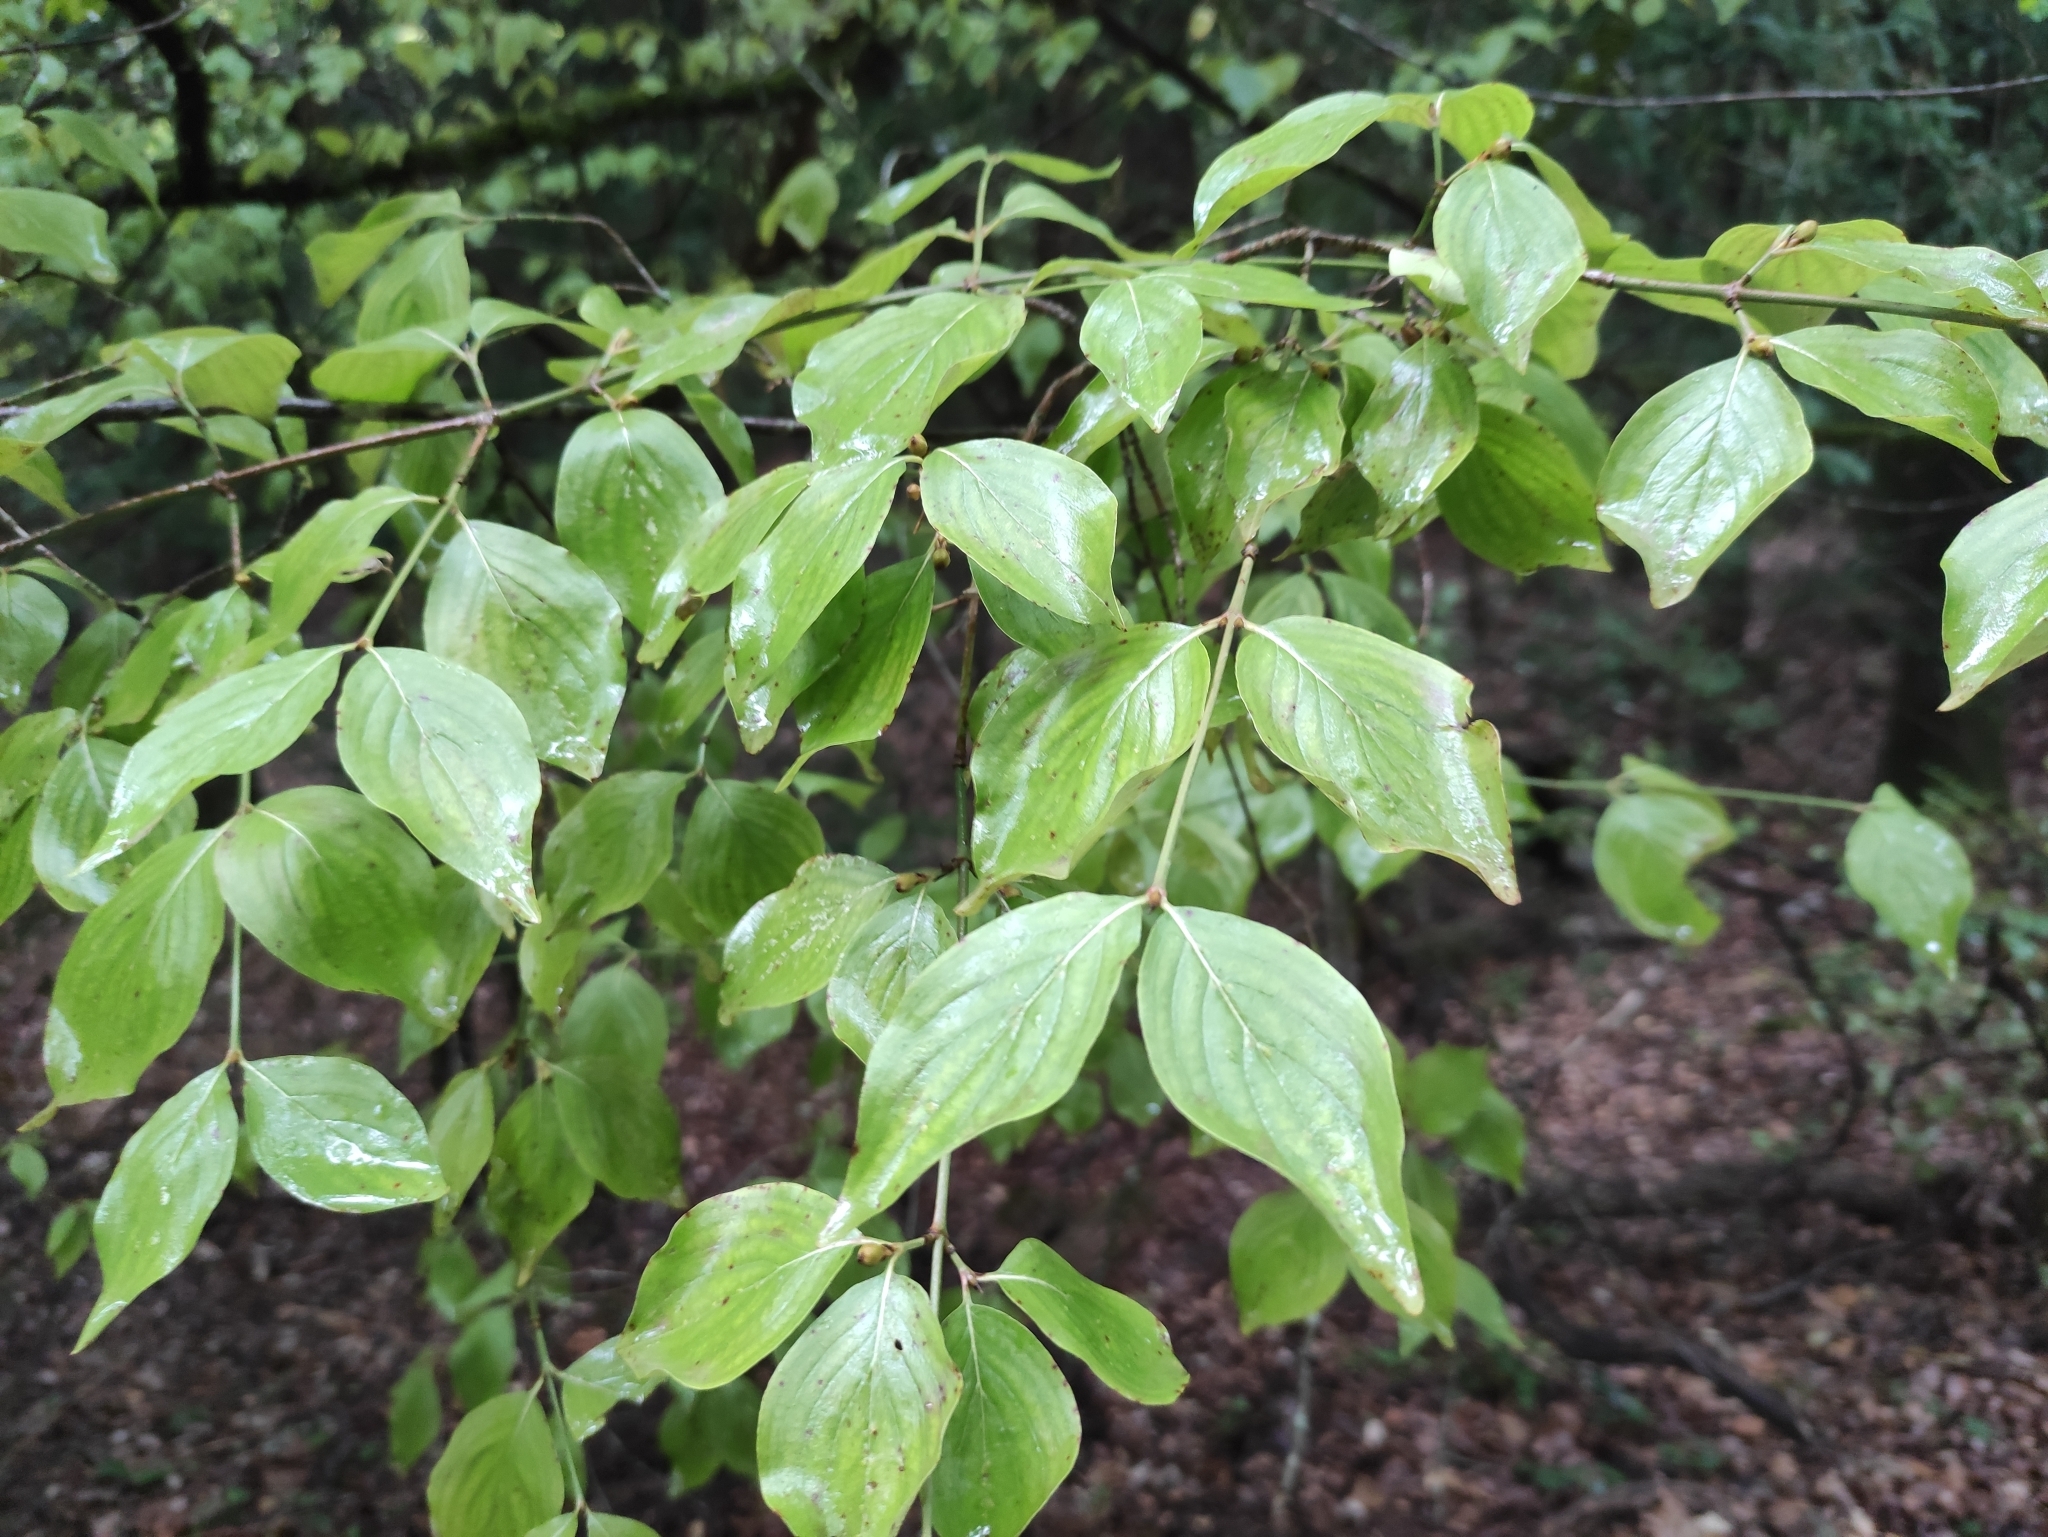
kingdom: Plantae
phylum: Tracheophyta
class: Magnoliopsida
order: Cornales
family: Cornaceae
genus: Cornus
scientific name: Cornus mas
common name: Cornelian-cherry
